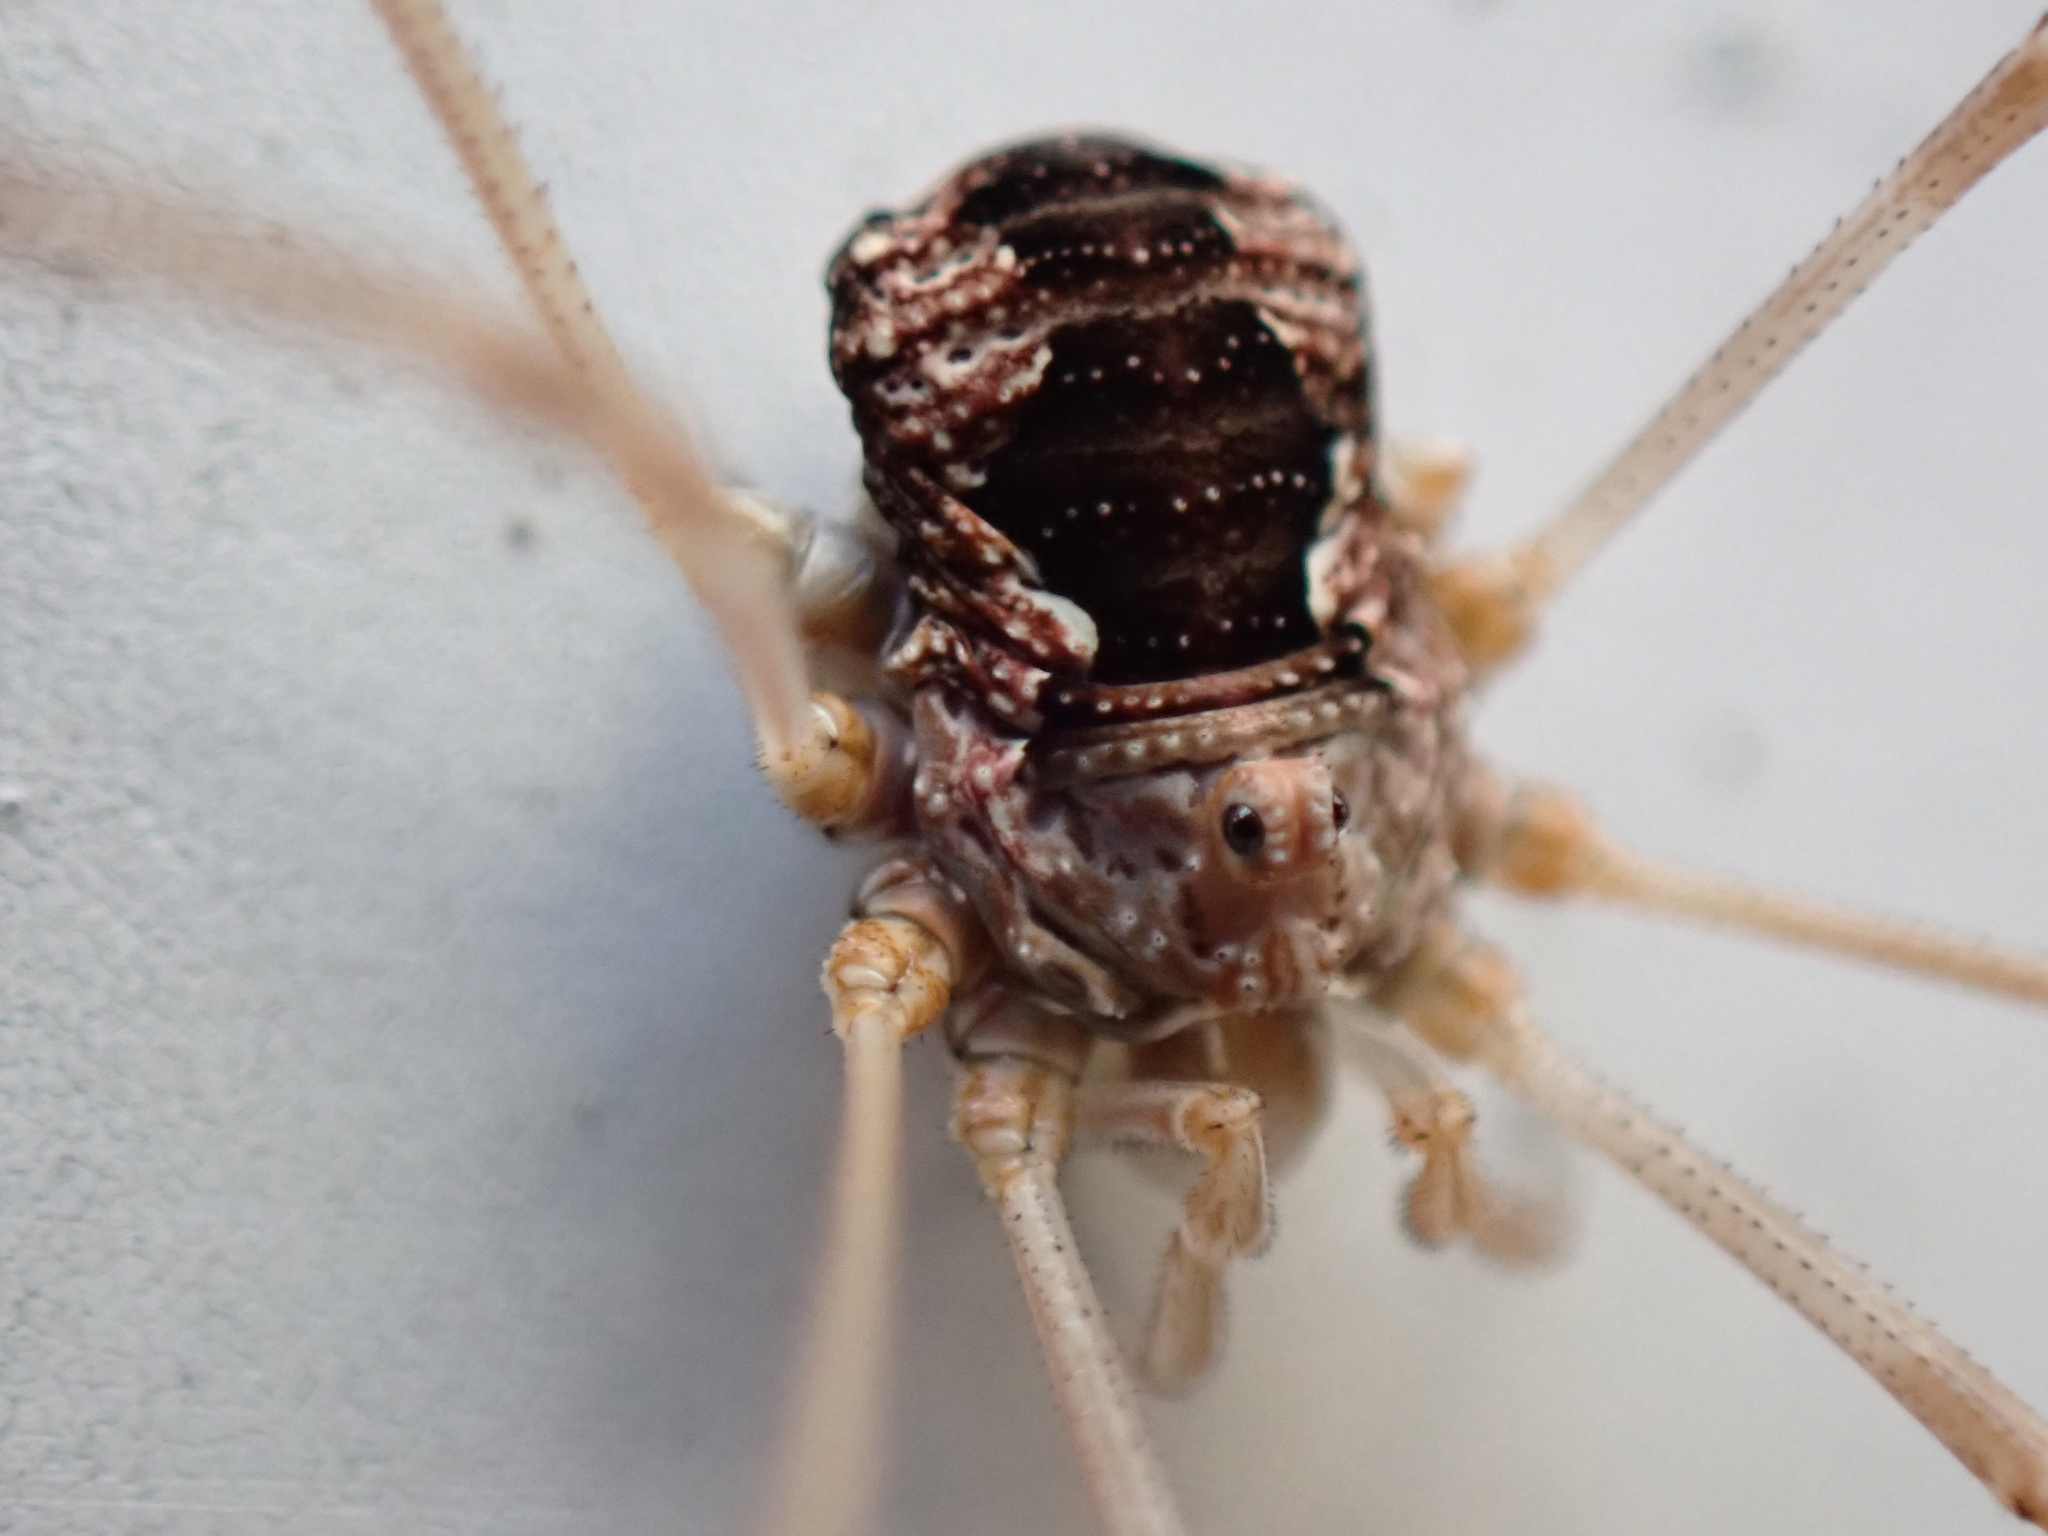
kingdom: Animalia
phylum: Arthropoda
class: Arachnida
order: Opiliones
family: Phalangiidae
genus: Phalangium
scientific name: Phalangium opilio
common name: Daddy longleg
